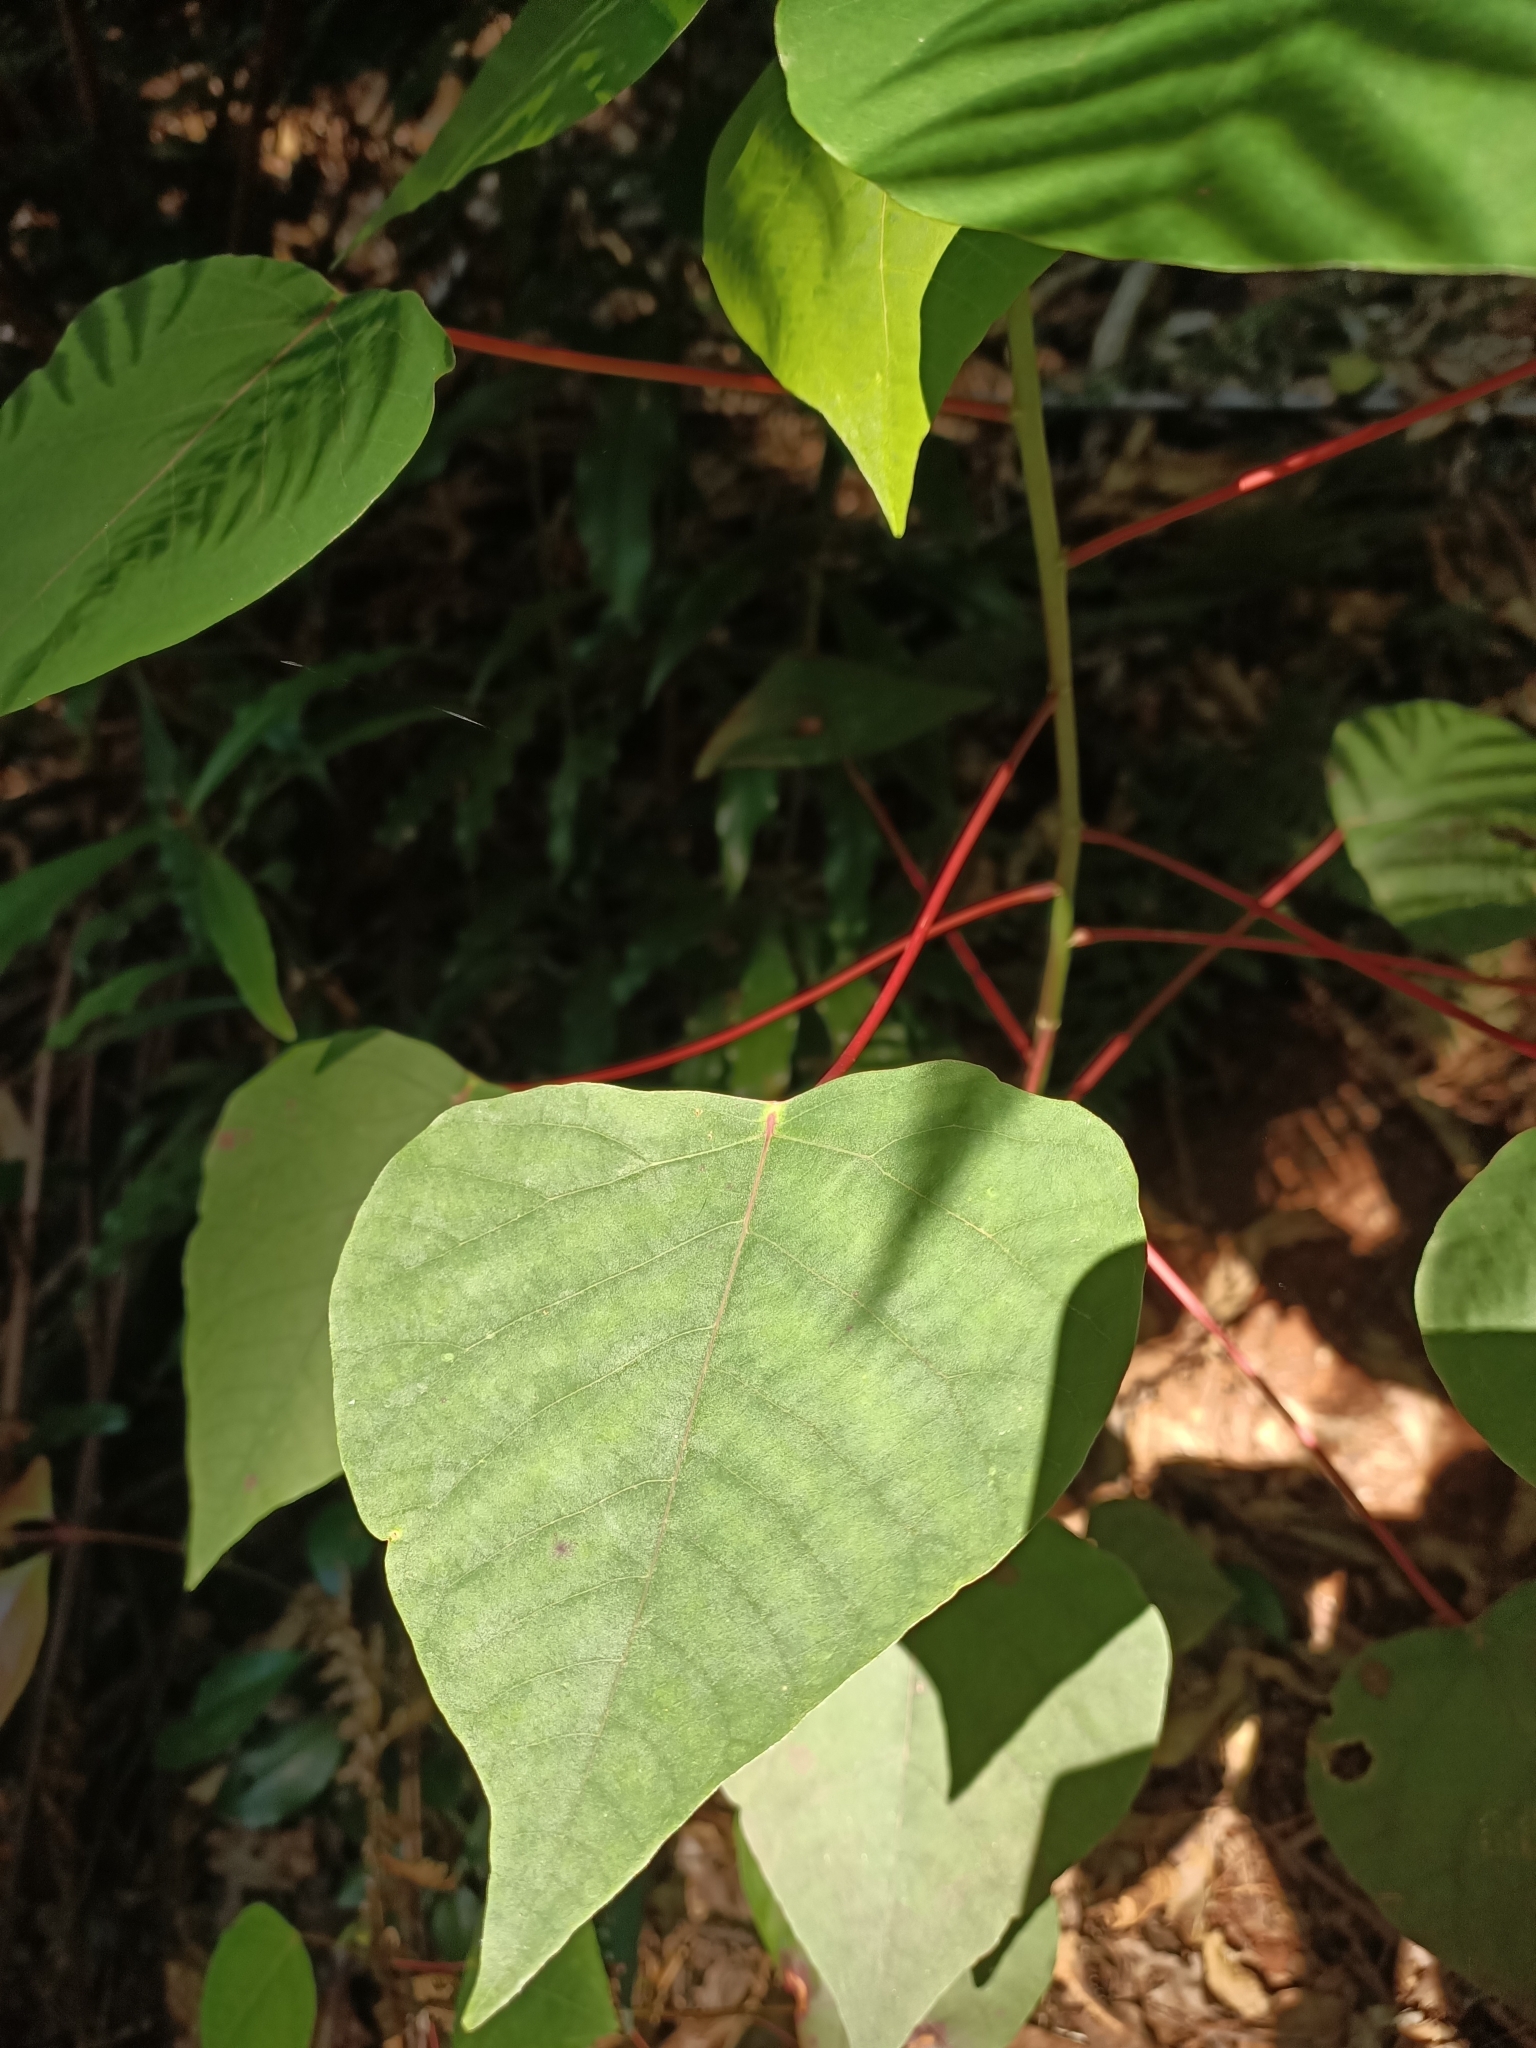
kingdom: Plantae
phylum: Tracheophyta
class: Magnoliopsida
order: Malpighiales
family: Euphorbiaceae
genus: Homalanthus
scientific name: Homalanthus populifolius
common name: Queensland poplar
